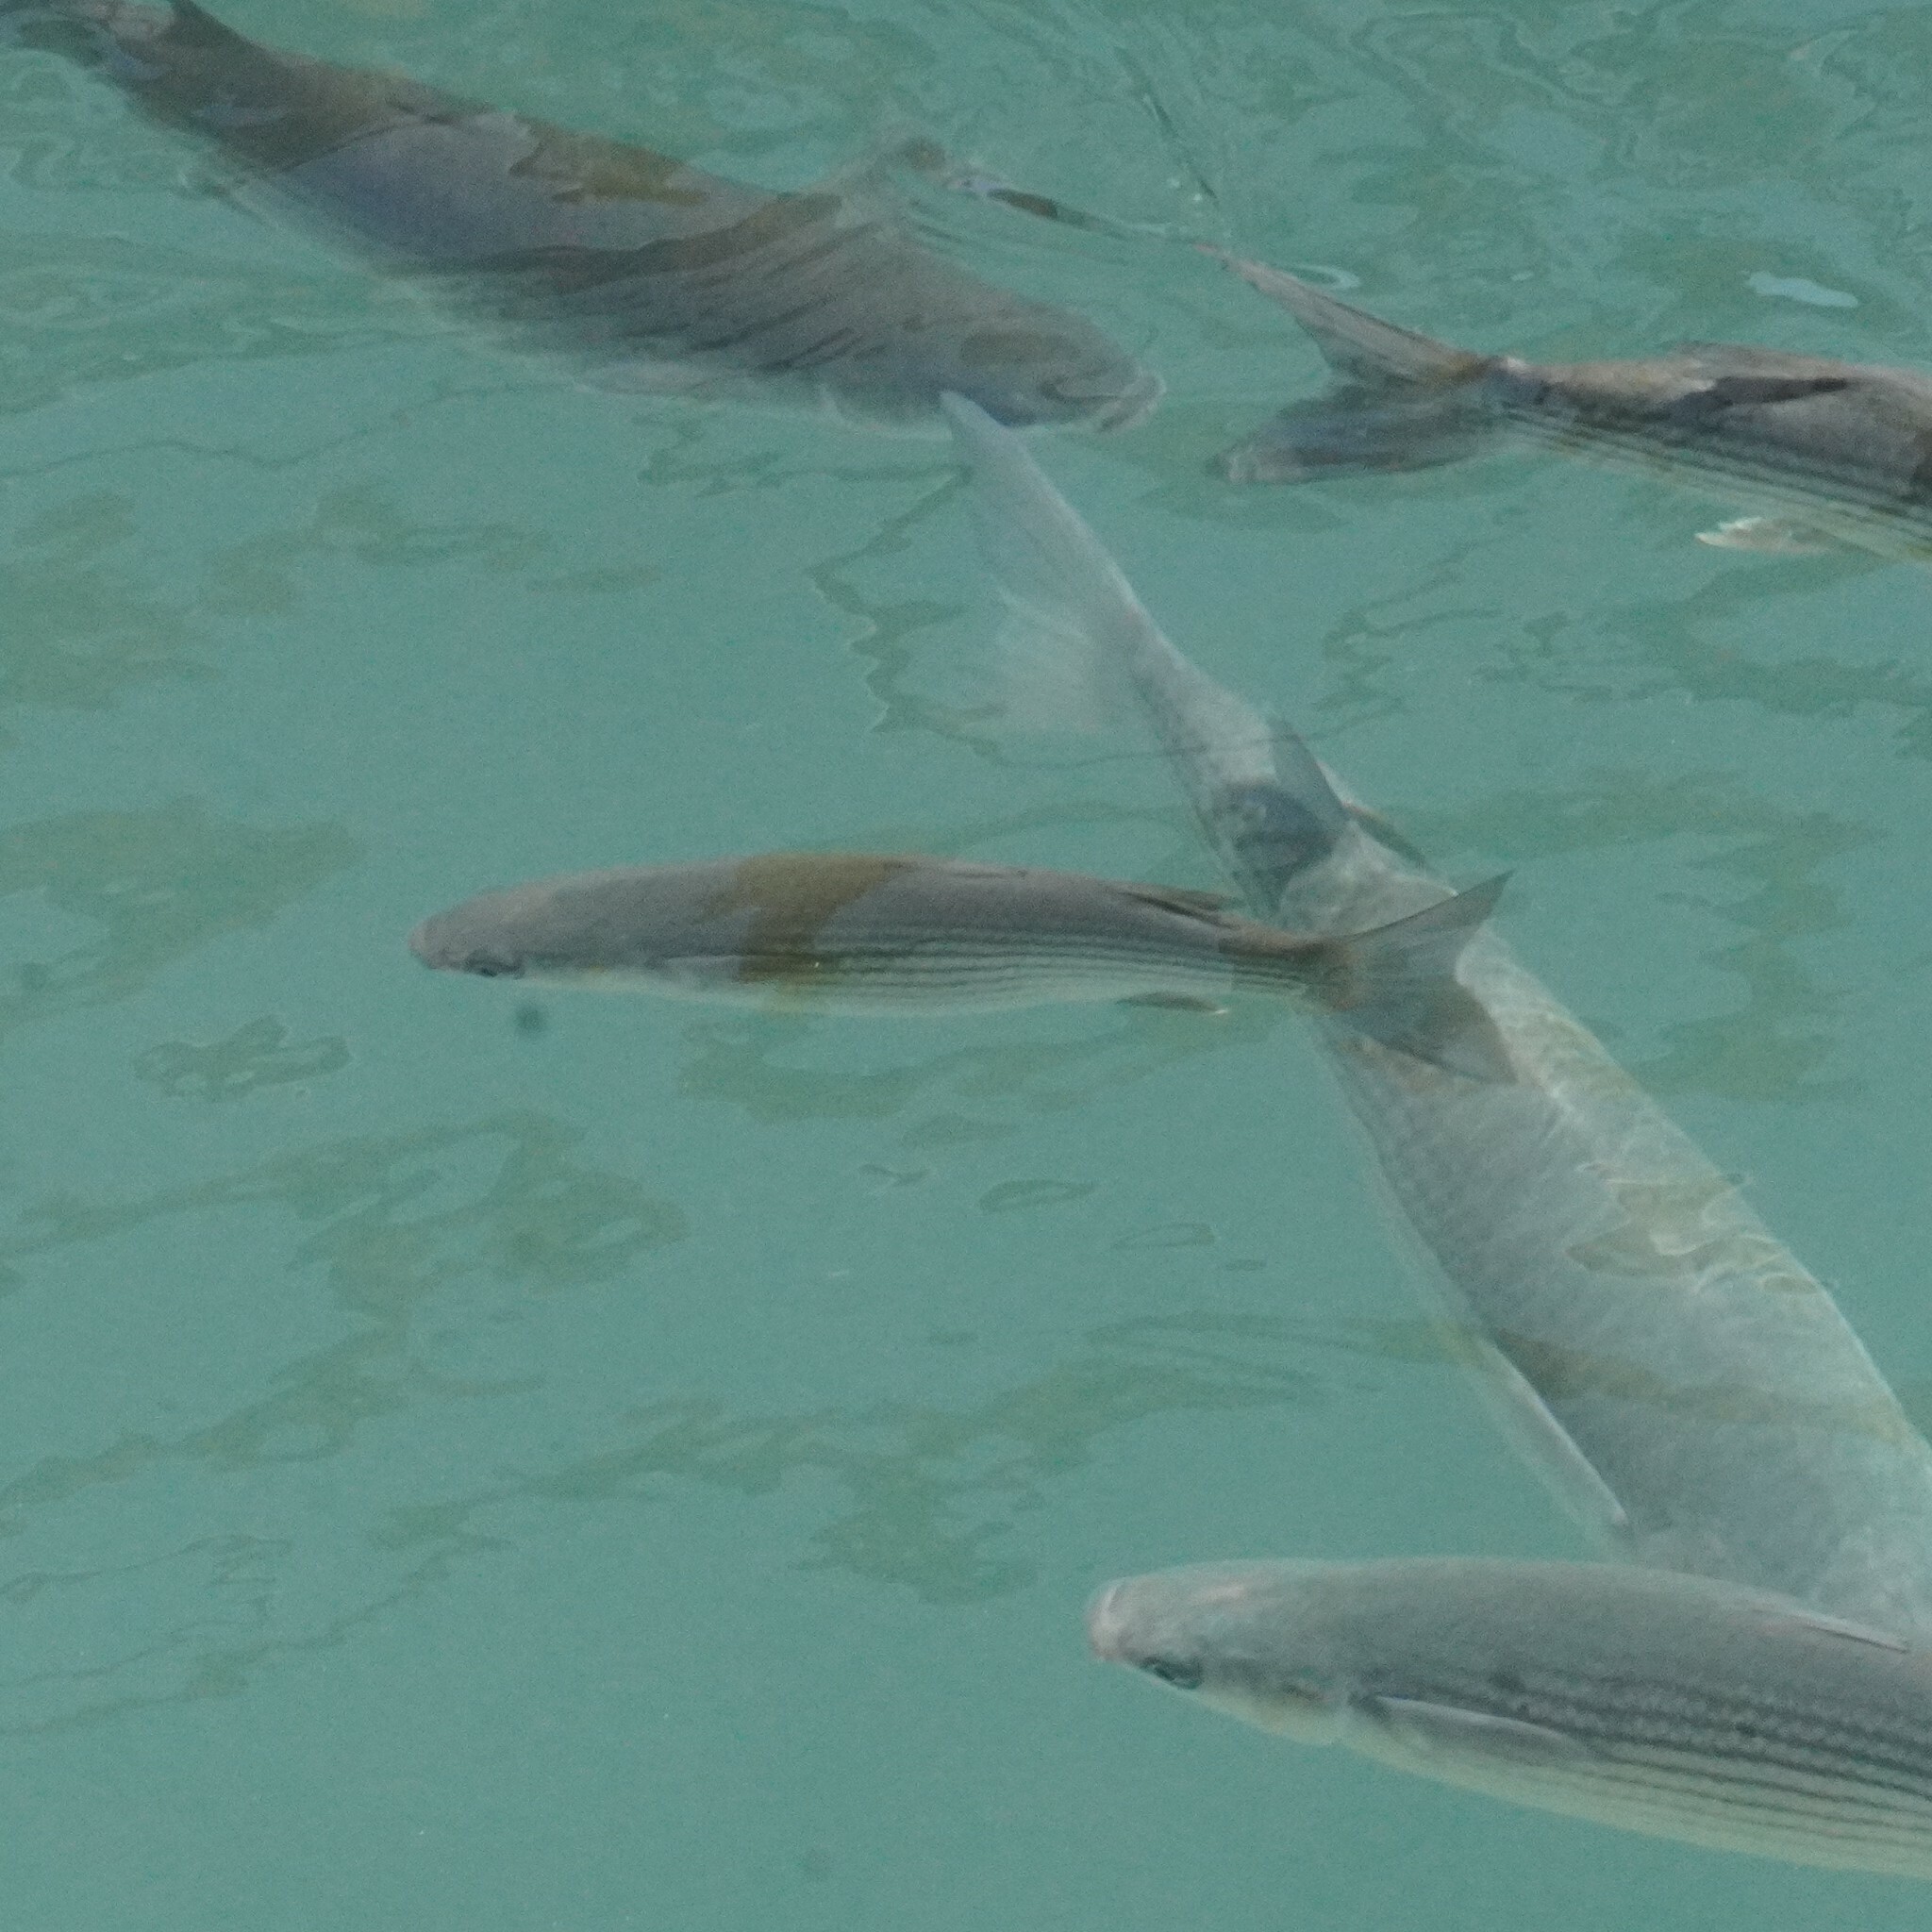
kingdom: Animalia
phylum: Chordata
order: Mugiliformes
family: Mugilidae
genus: Chelon
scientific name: Chelon labrosus
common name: Thick-lipped mullet
